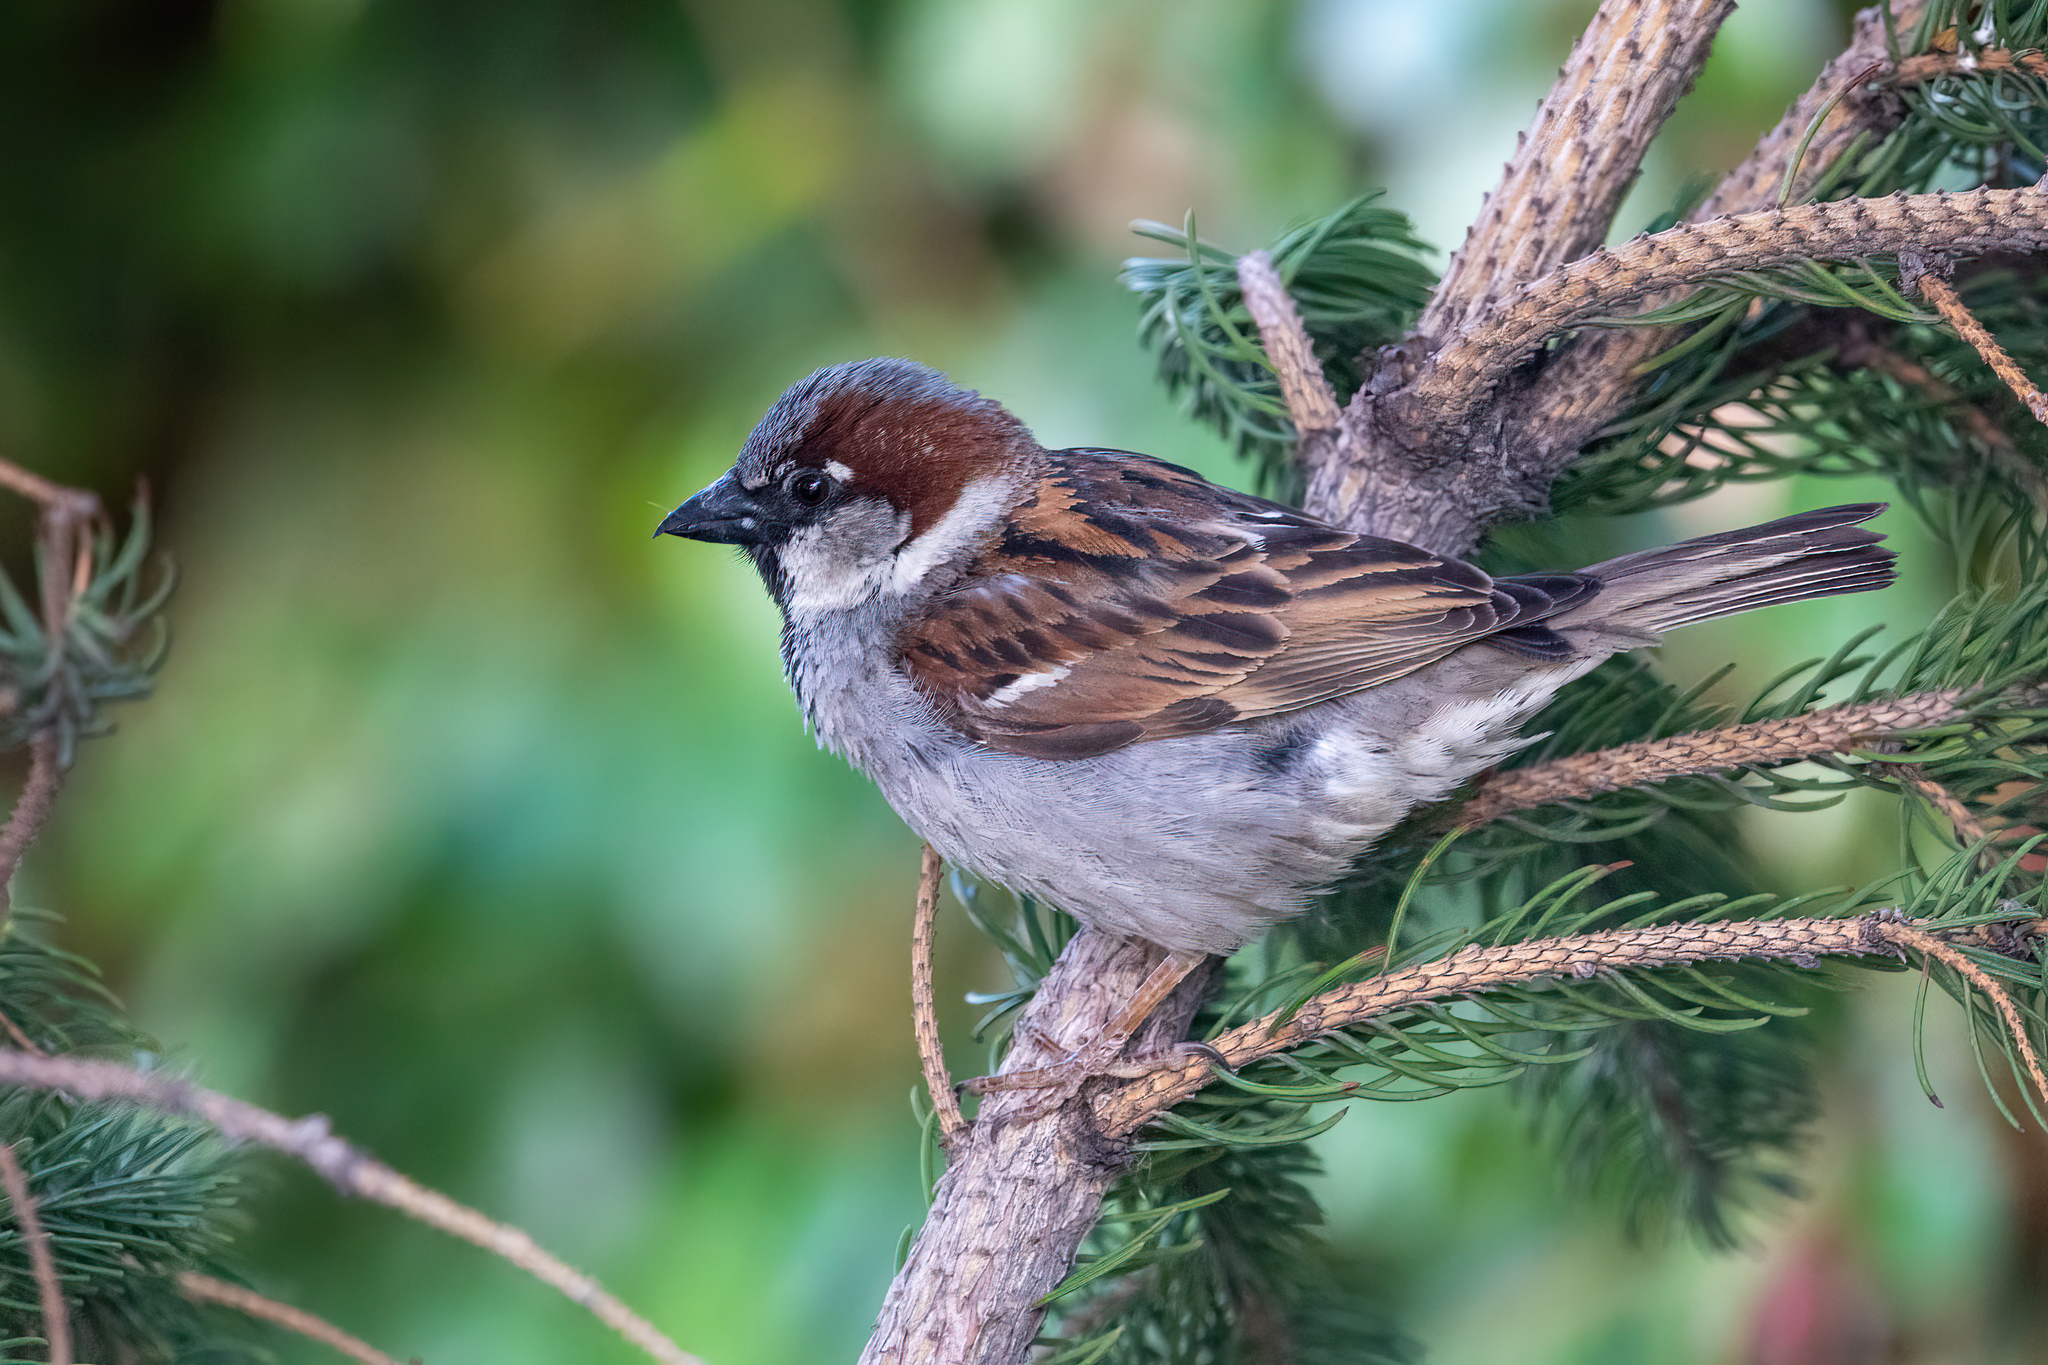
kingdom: Animalia
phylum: Chordata
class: Aves
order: Passeriformes
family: Passeridae
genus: Passer
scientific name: Passer domesticus
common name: House sparrow
